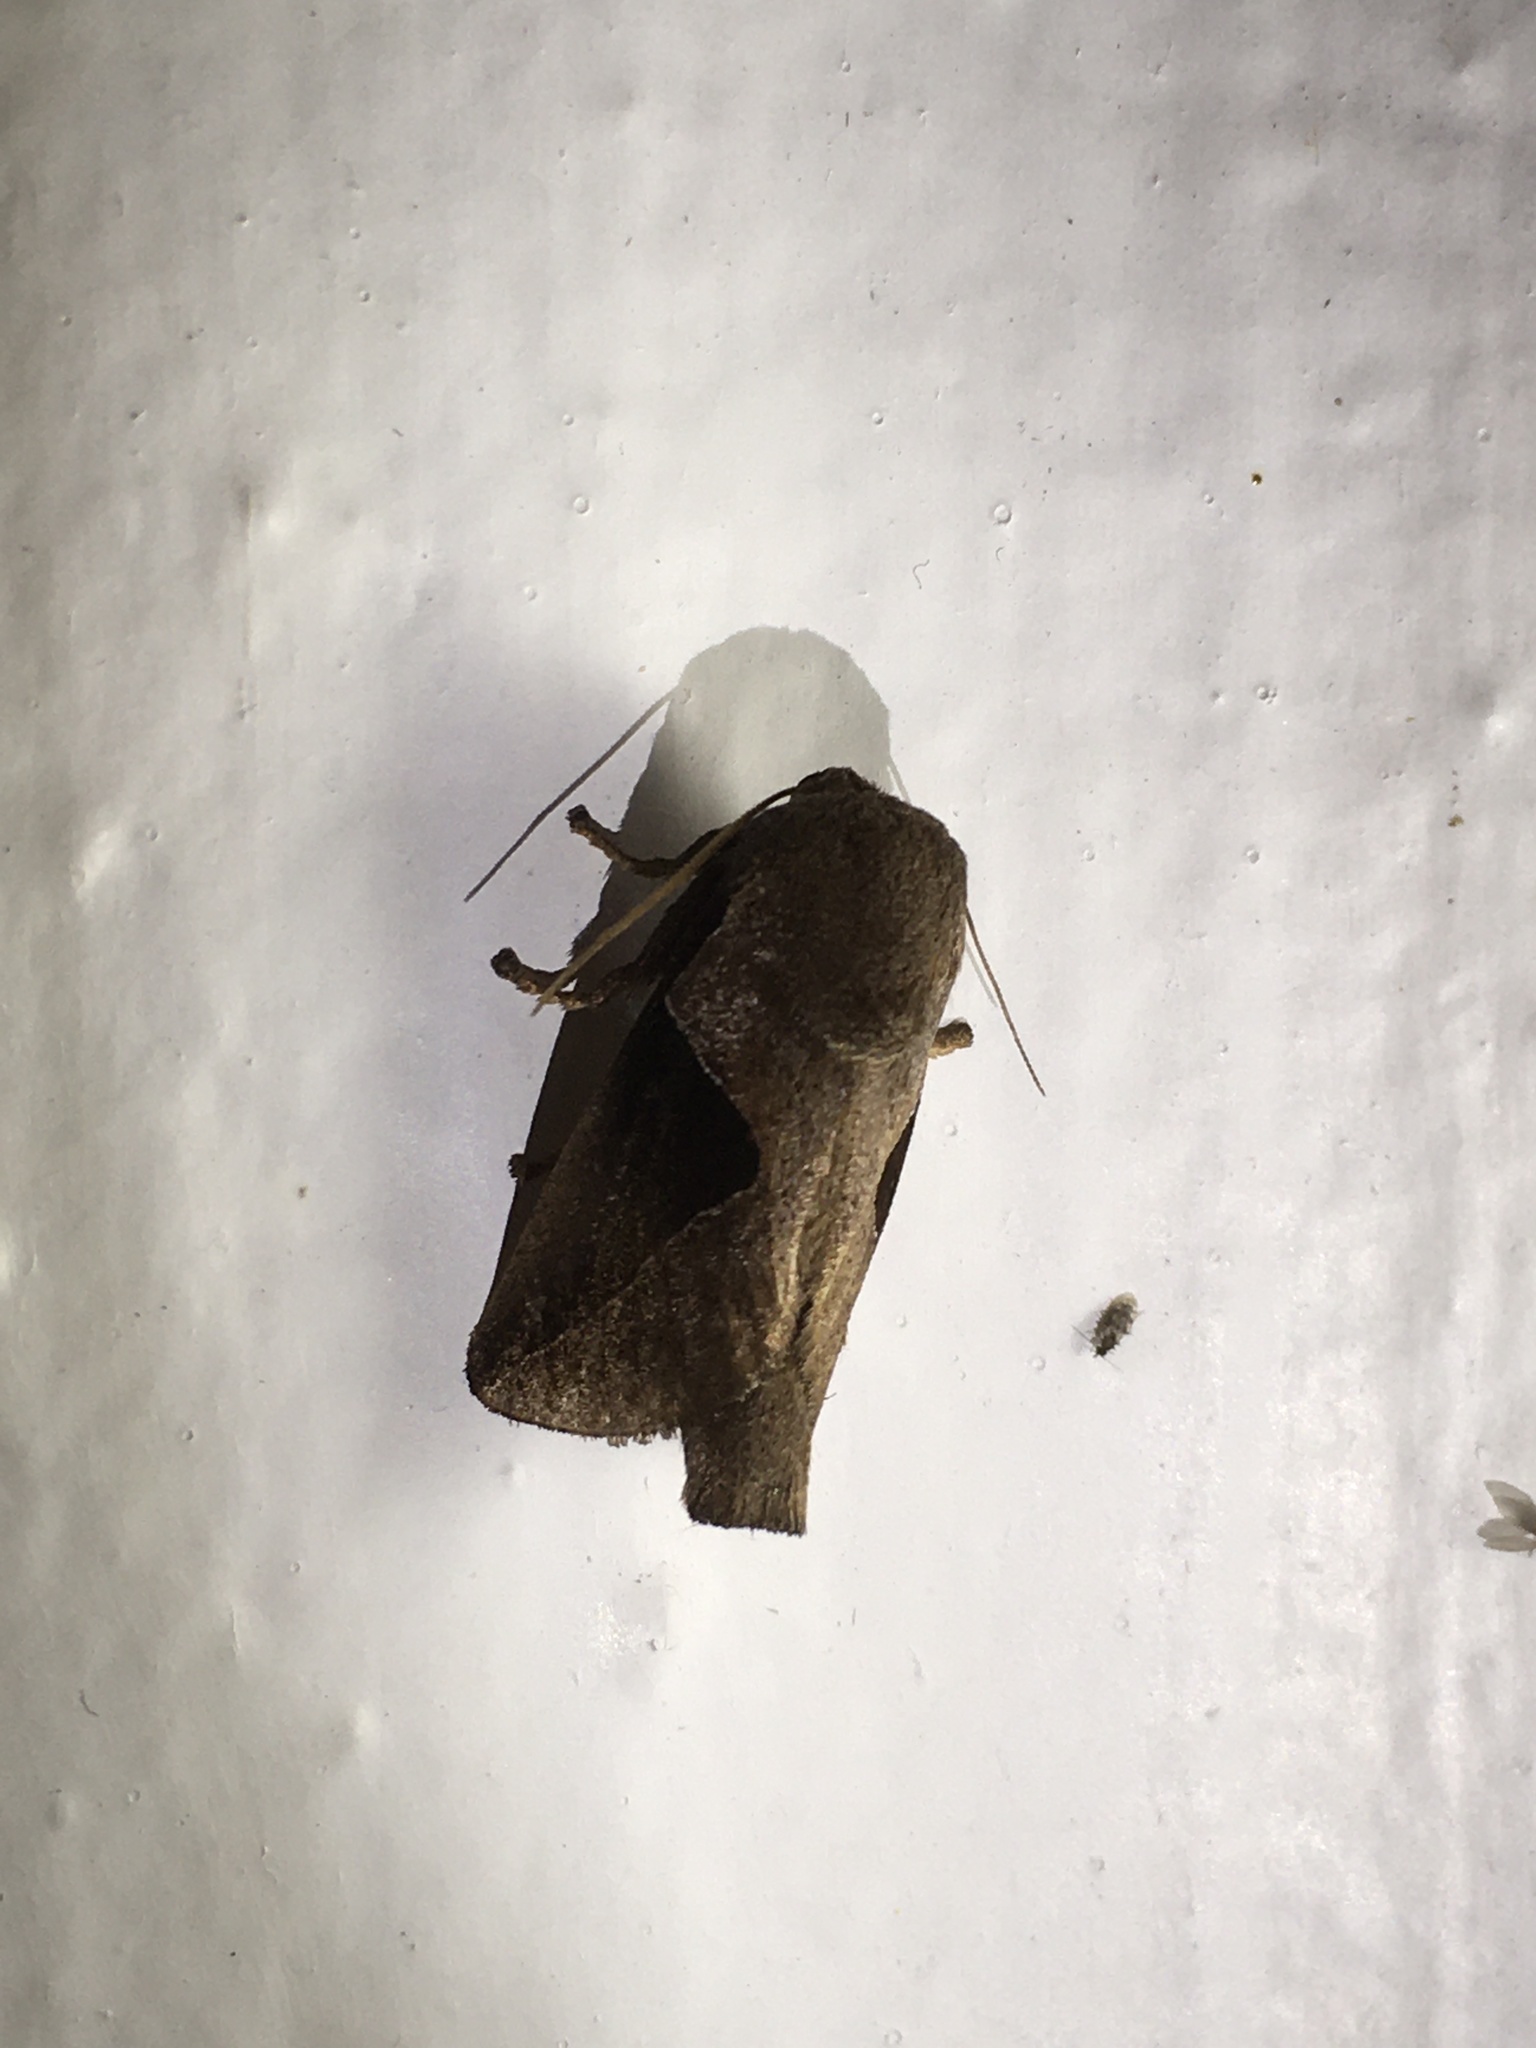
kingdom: Animalia
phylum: Arthropoda
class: Insecta
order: Lepidoptera
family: Limacodidae
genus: Prolimacodes
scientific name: Prolimacodes triangulifera
